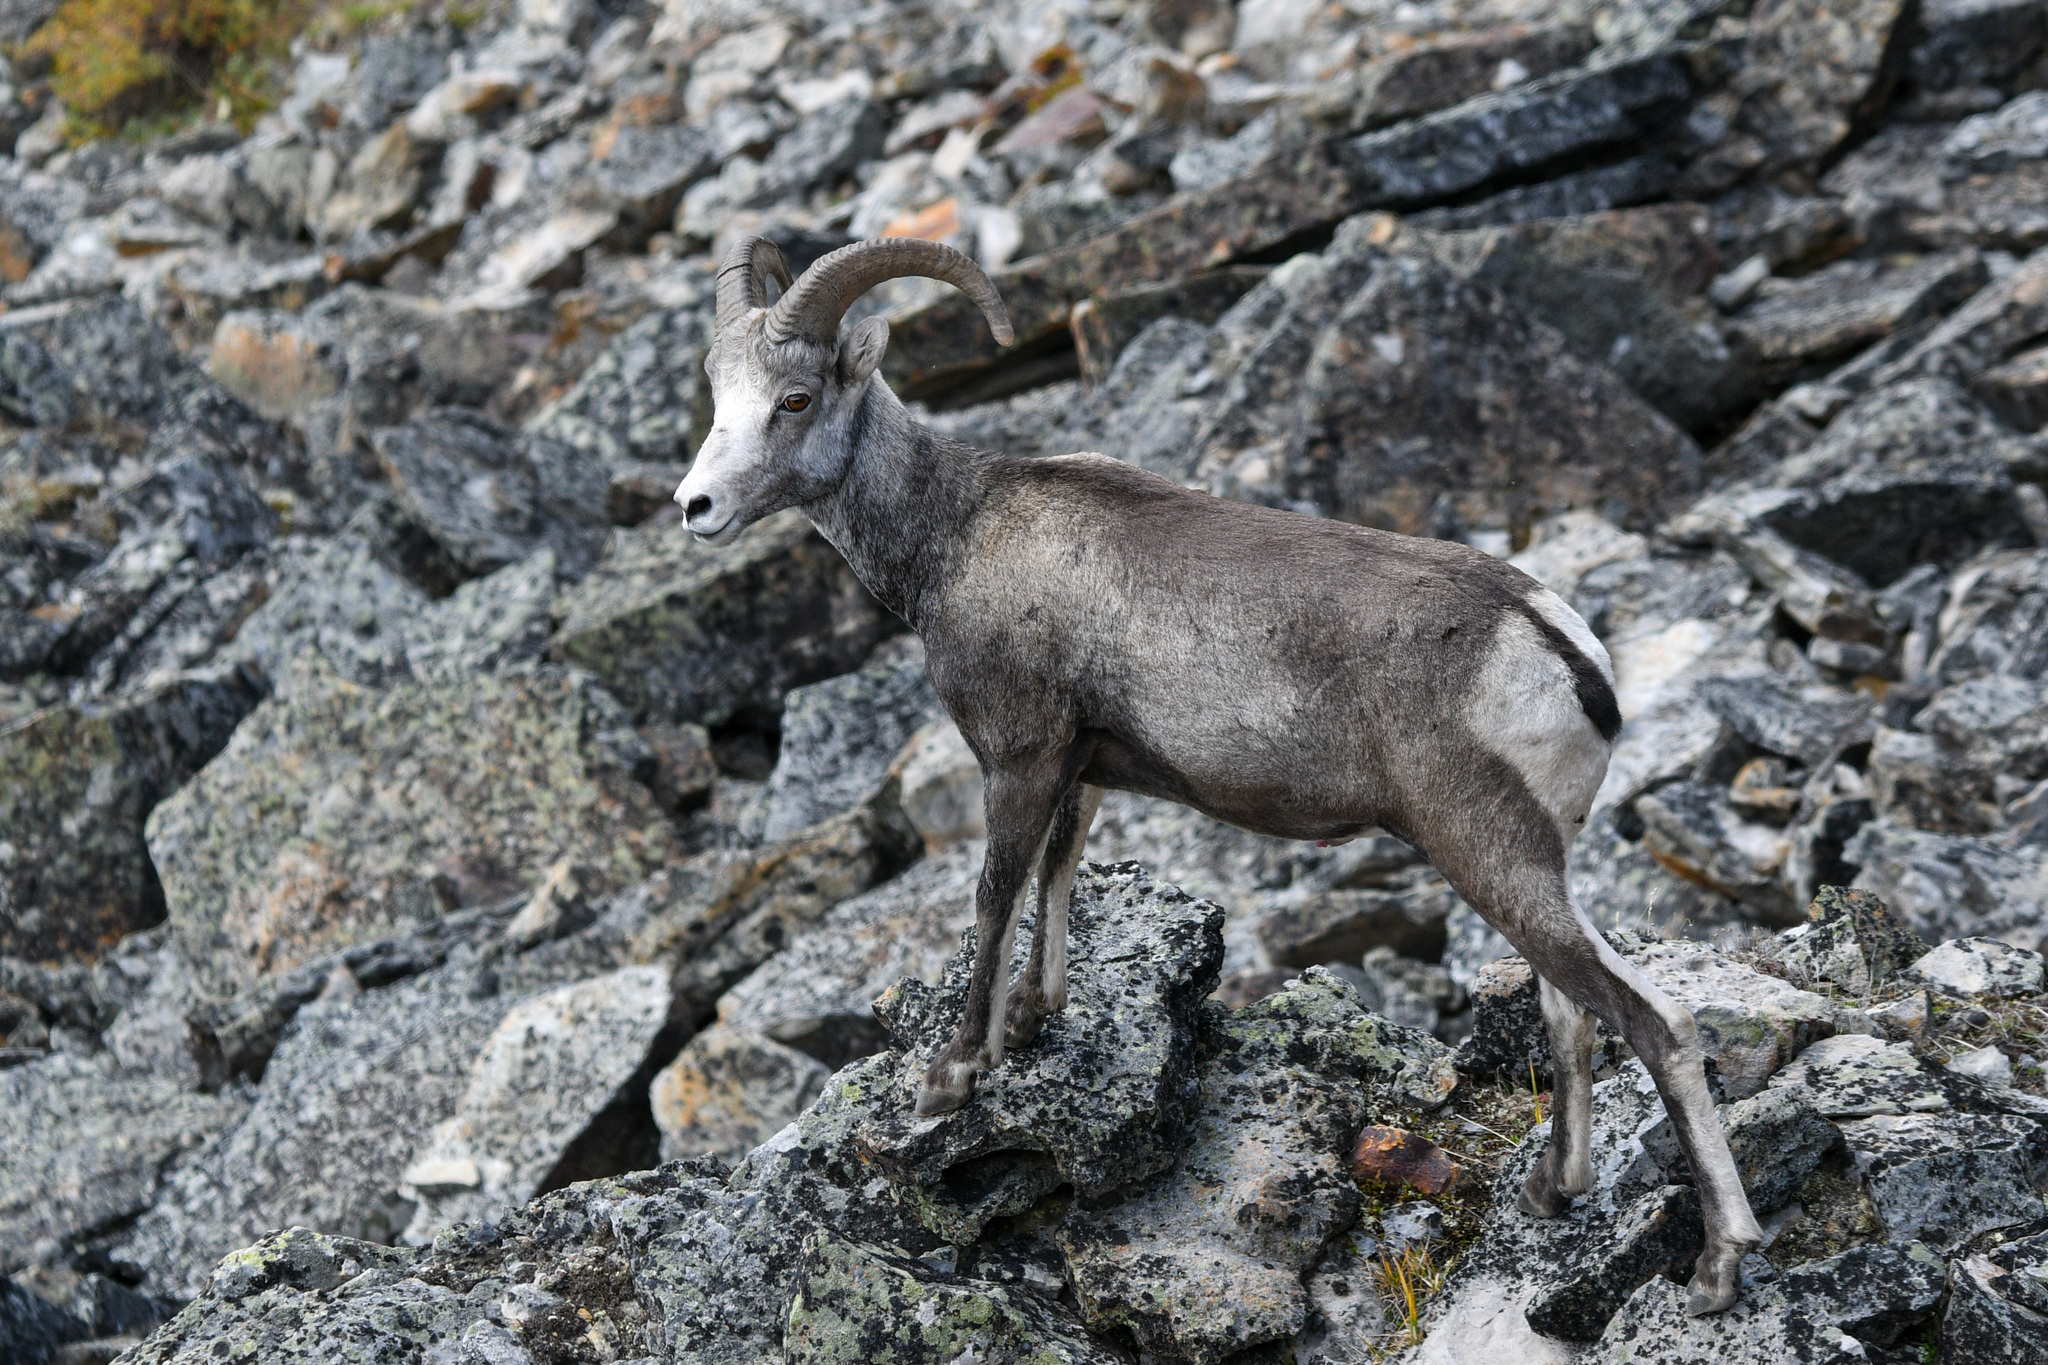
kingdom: Animalia
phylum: Chordata
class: Mammalia
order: Artiodactyla
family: Bovidae
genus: Ovis
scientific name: Ovis dalli
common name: Dall's sheep
